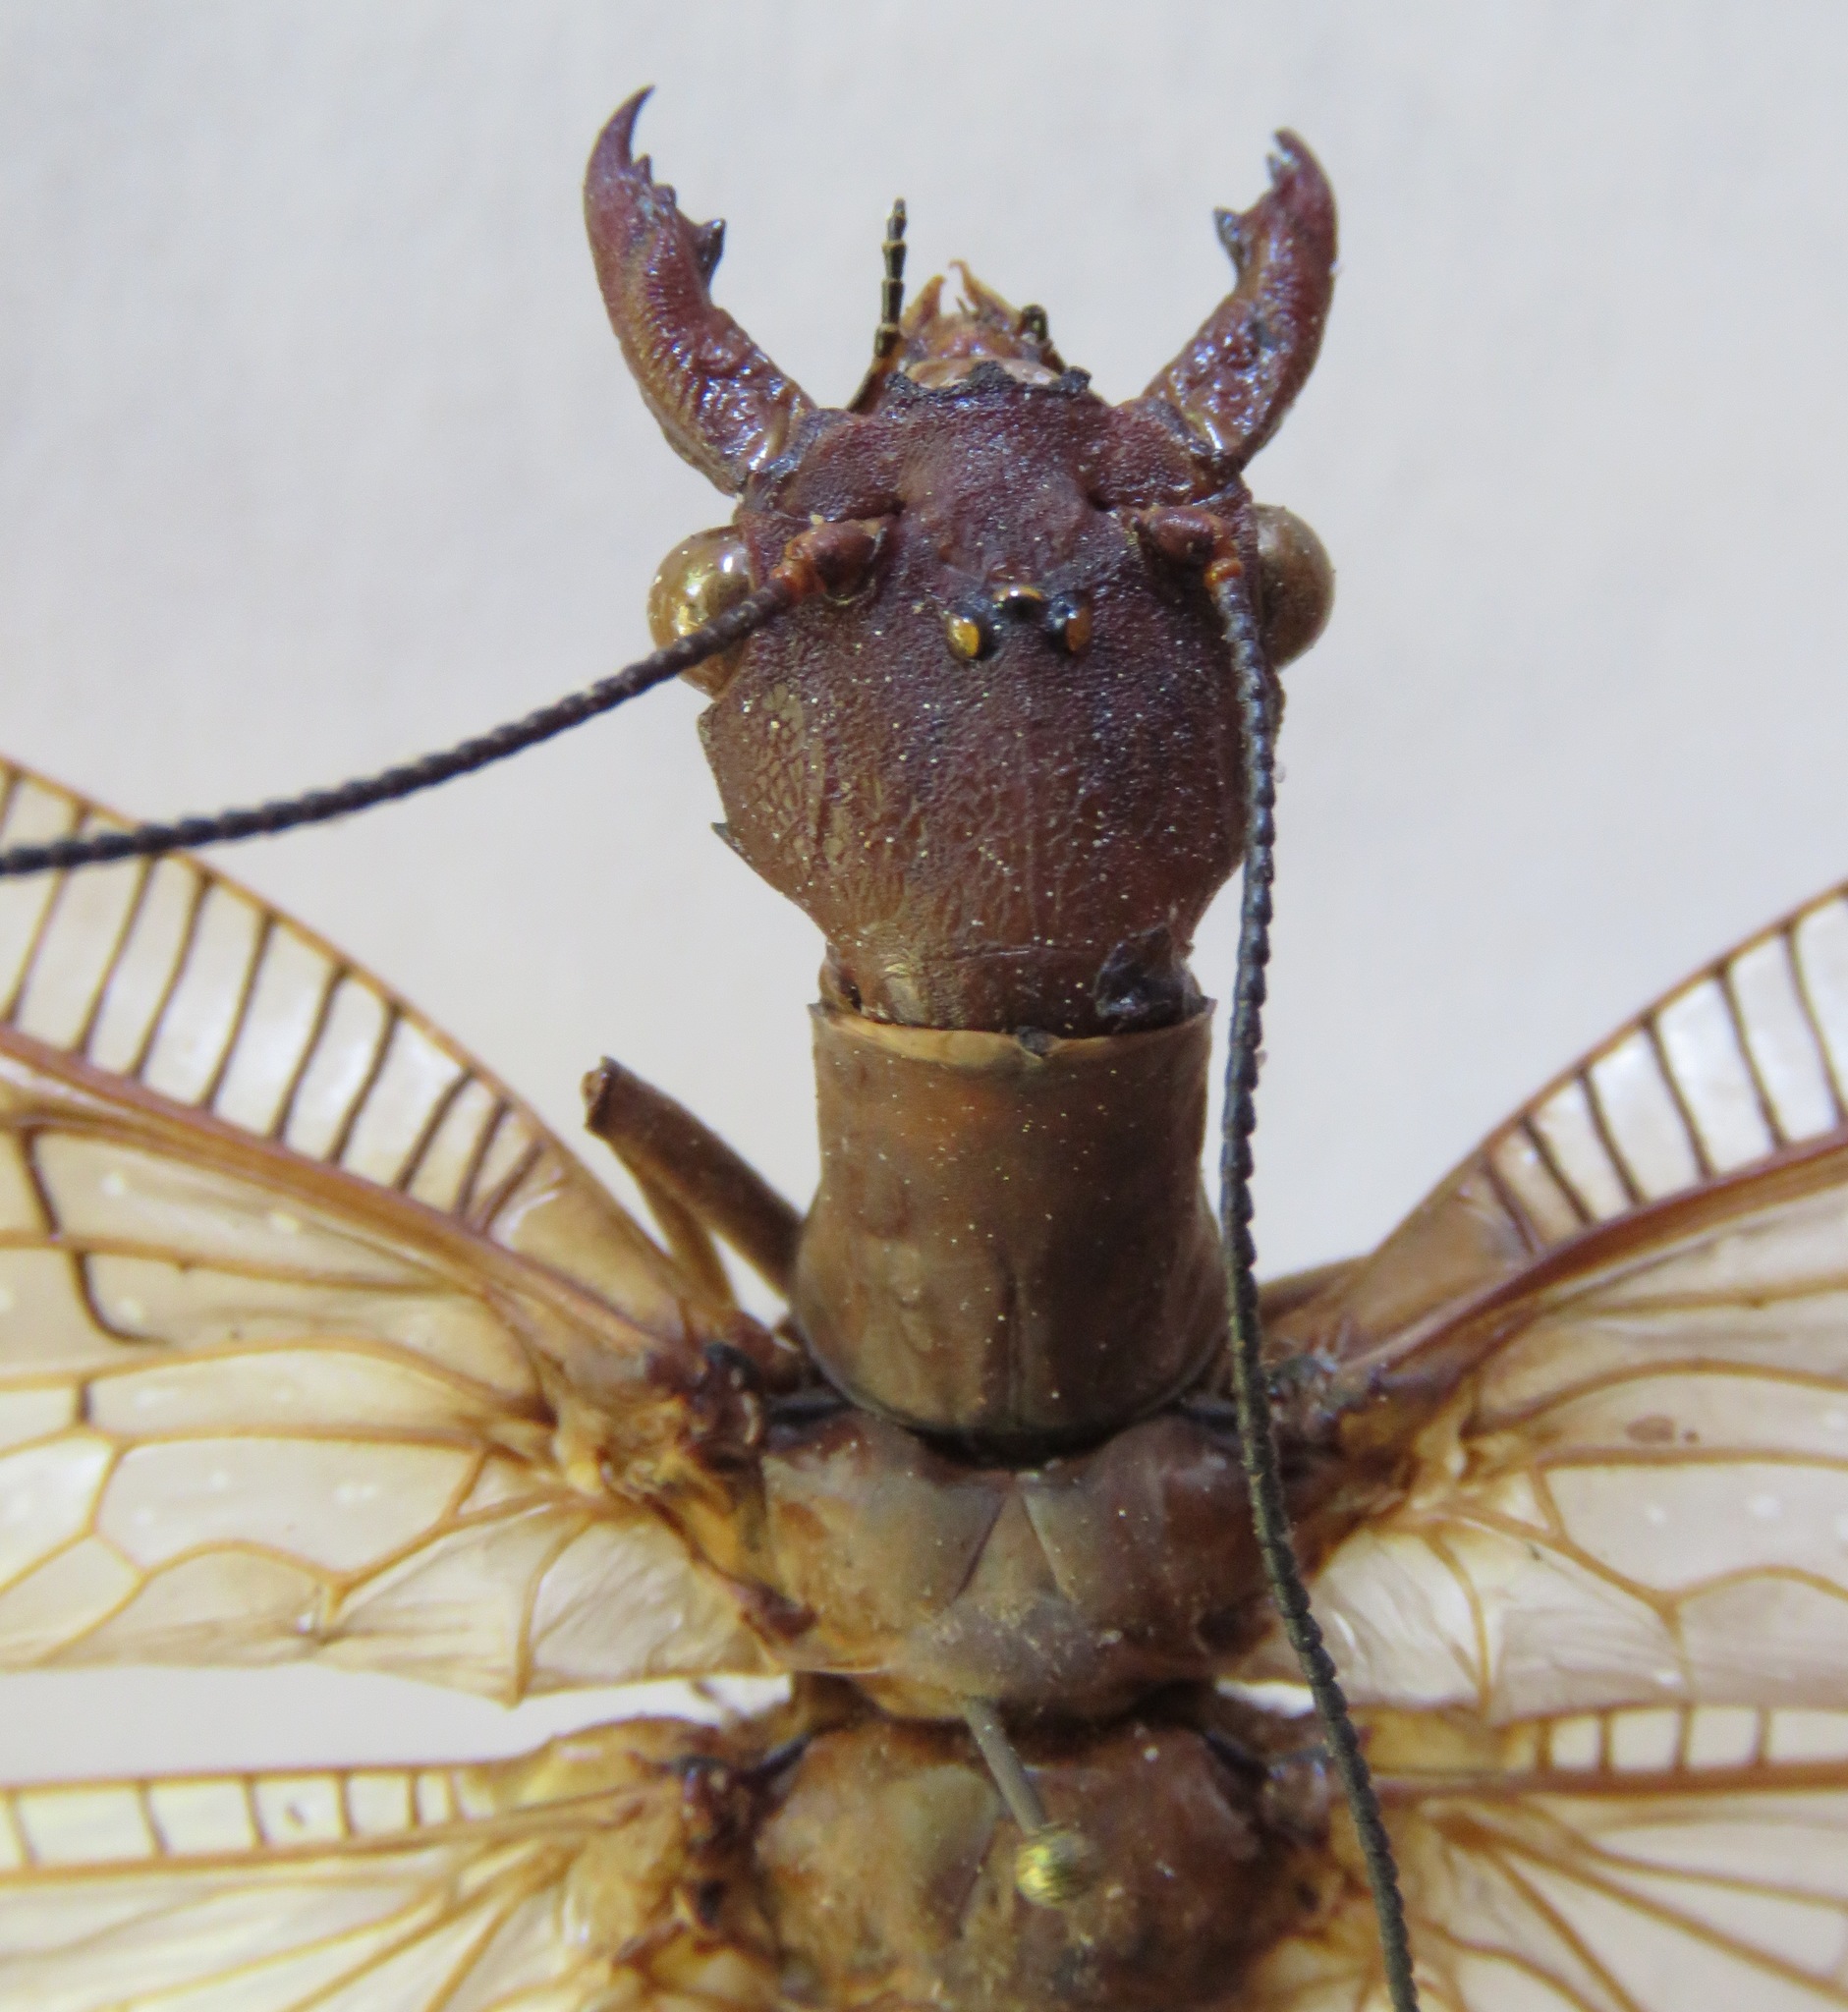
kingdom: Animalia
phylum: Arthropoda
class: Insecta
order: Megaloptera
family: Corydalidae
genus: Corydalus
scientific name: Corydalus peruvianus
